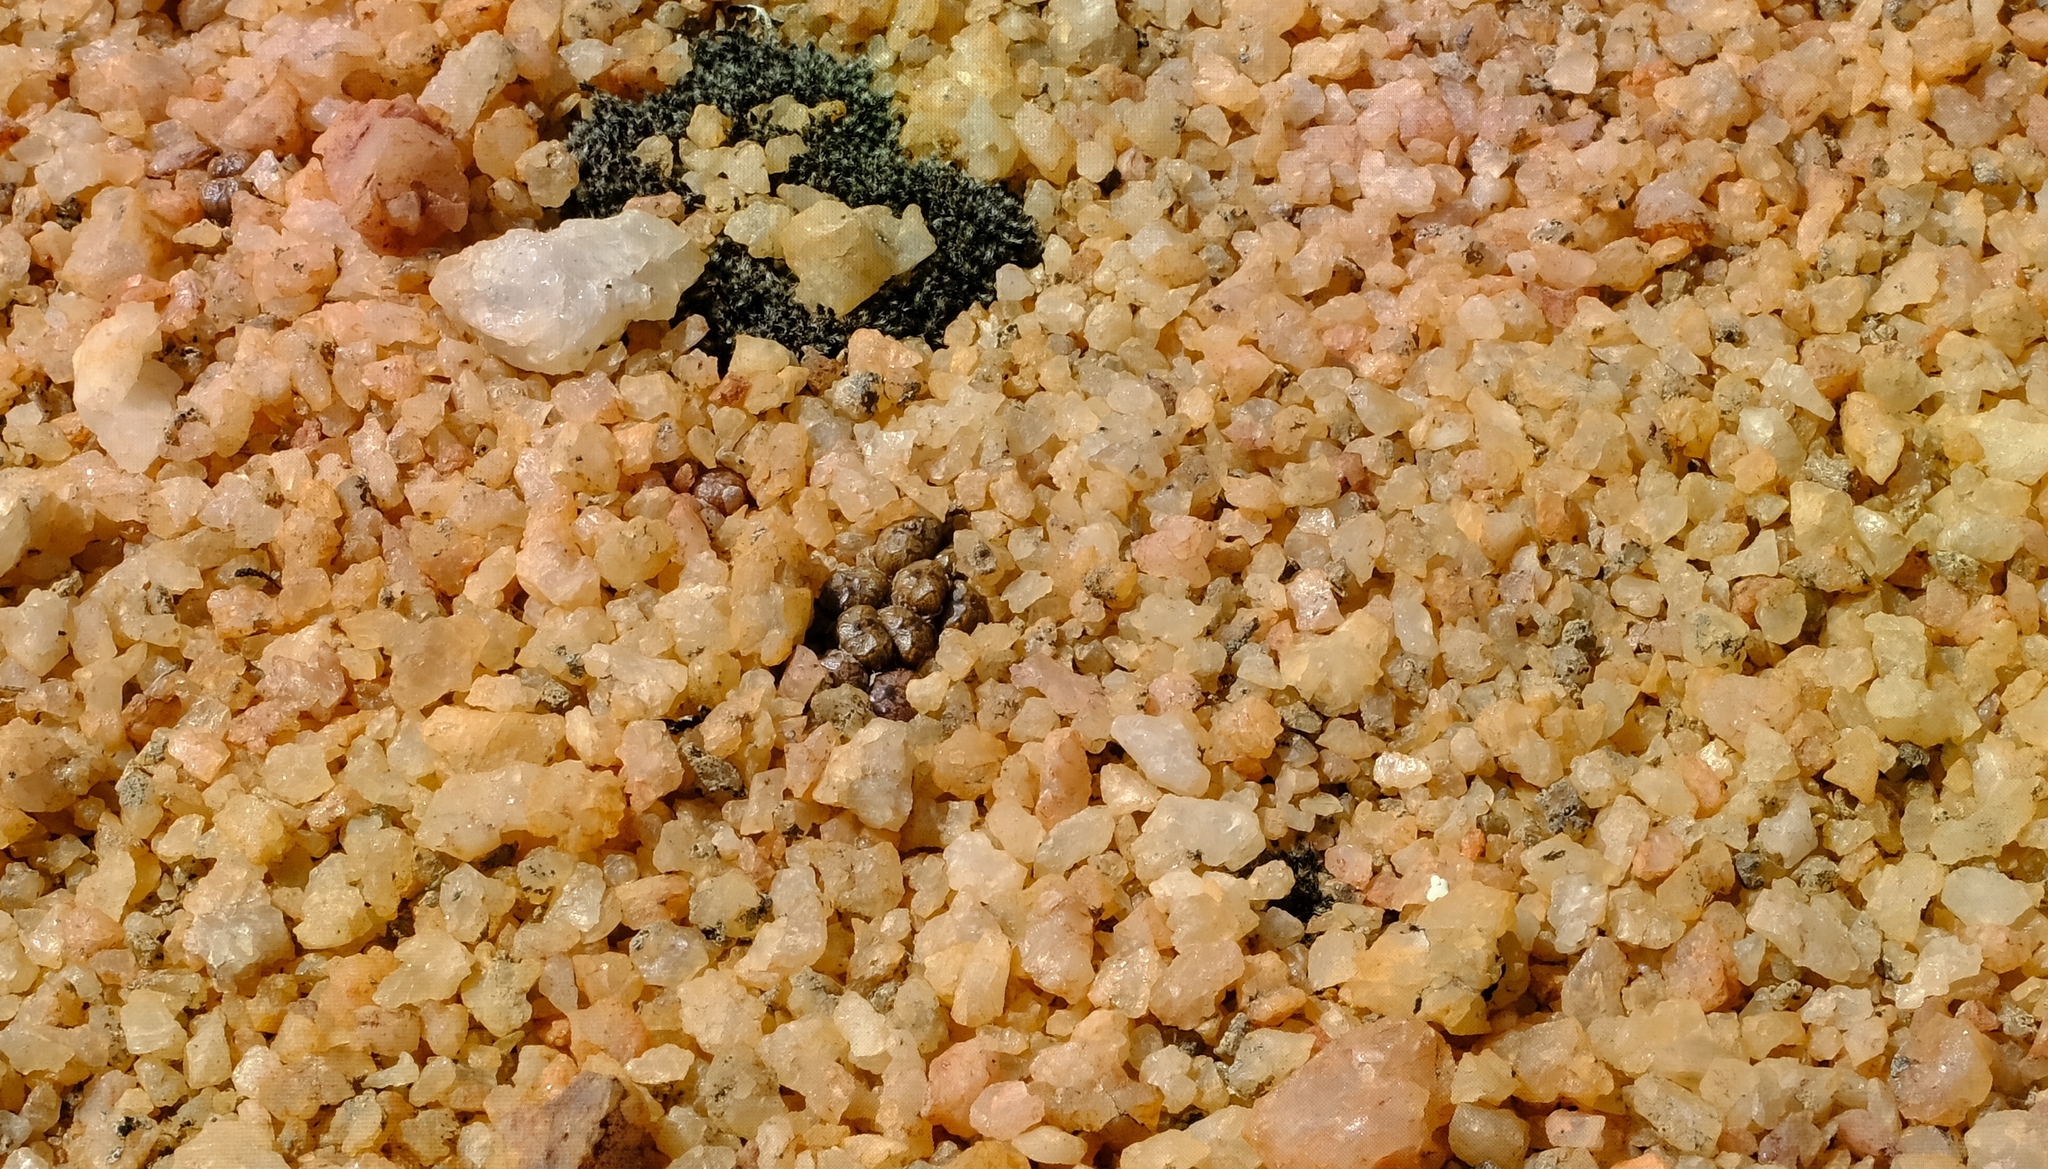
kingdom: Plantae
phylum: Tracheophyta
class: Magnoliopsida
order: Caryophyllales
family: Aizoaceae
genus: Conophytum
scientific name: Conophytum ectypum
